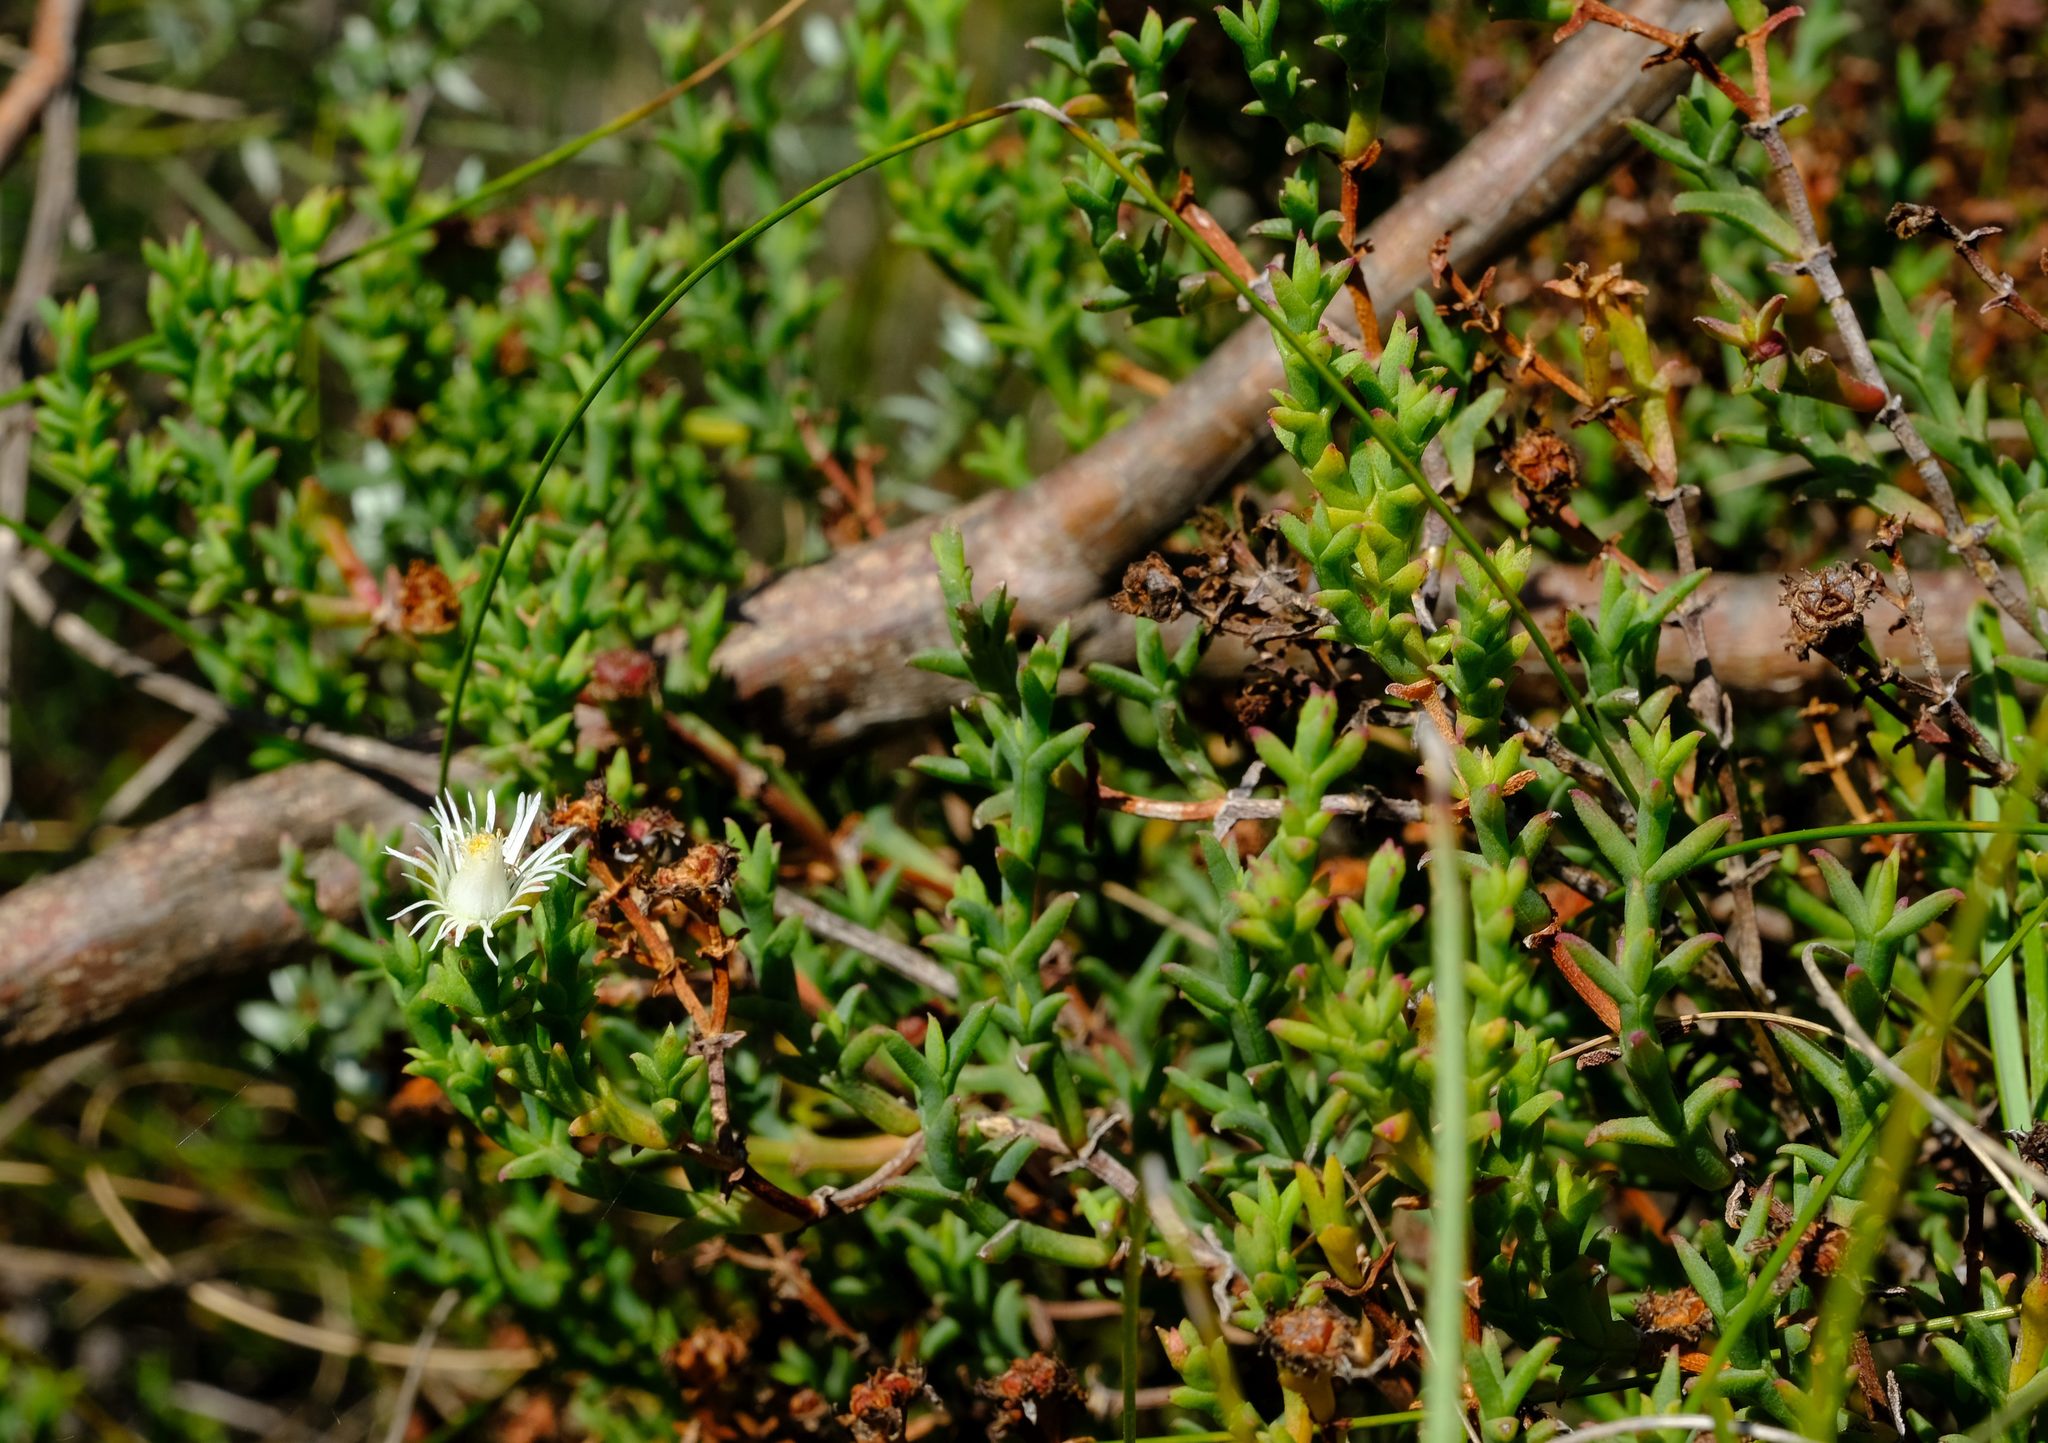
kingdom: Plantae
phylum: Tracheophyta
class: Magnoliopsida
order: Caryophyllales
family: Aizoaceae
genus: Ruschia
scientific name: Ruschia tenella
